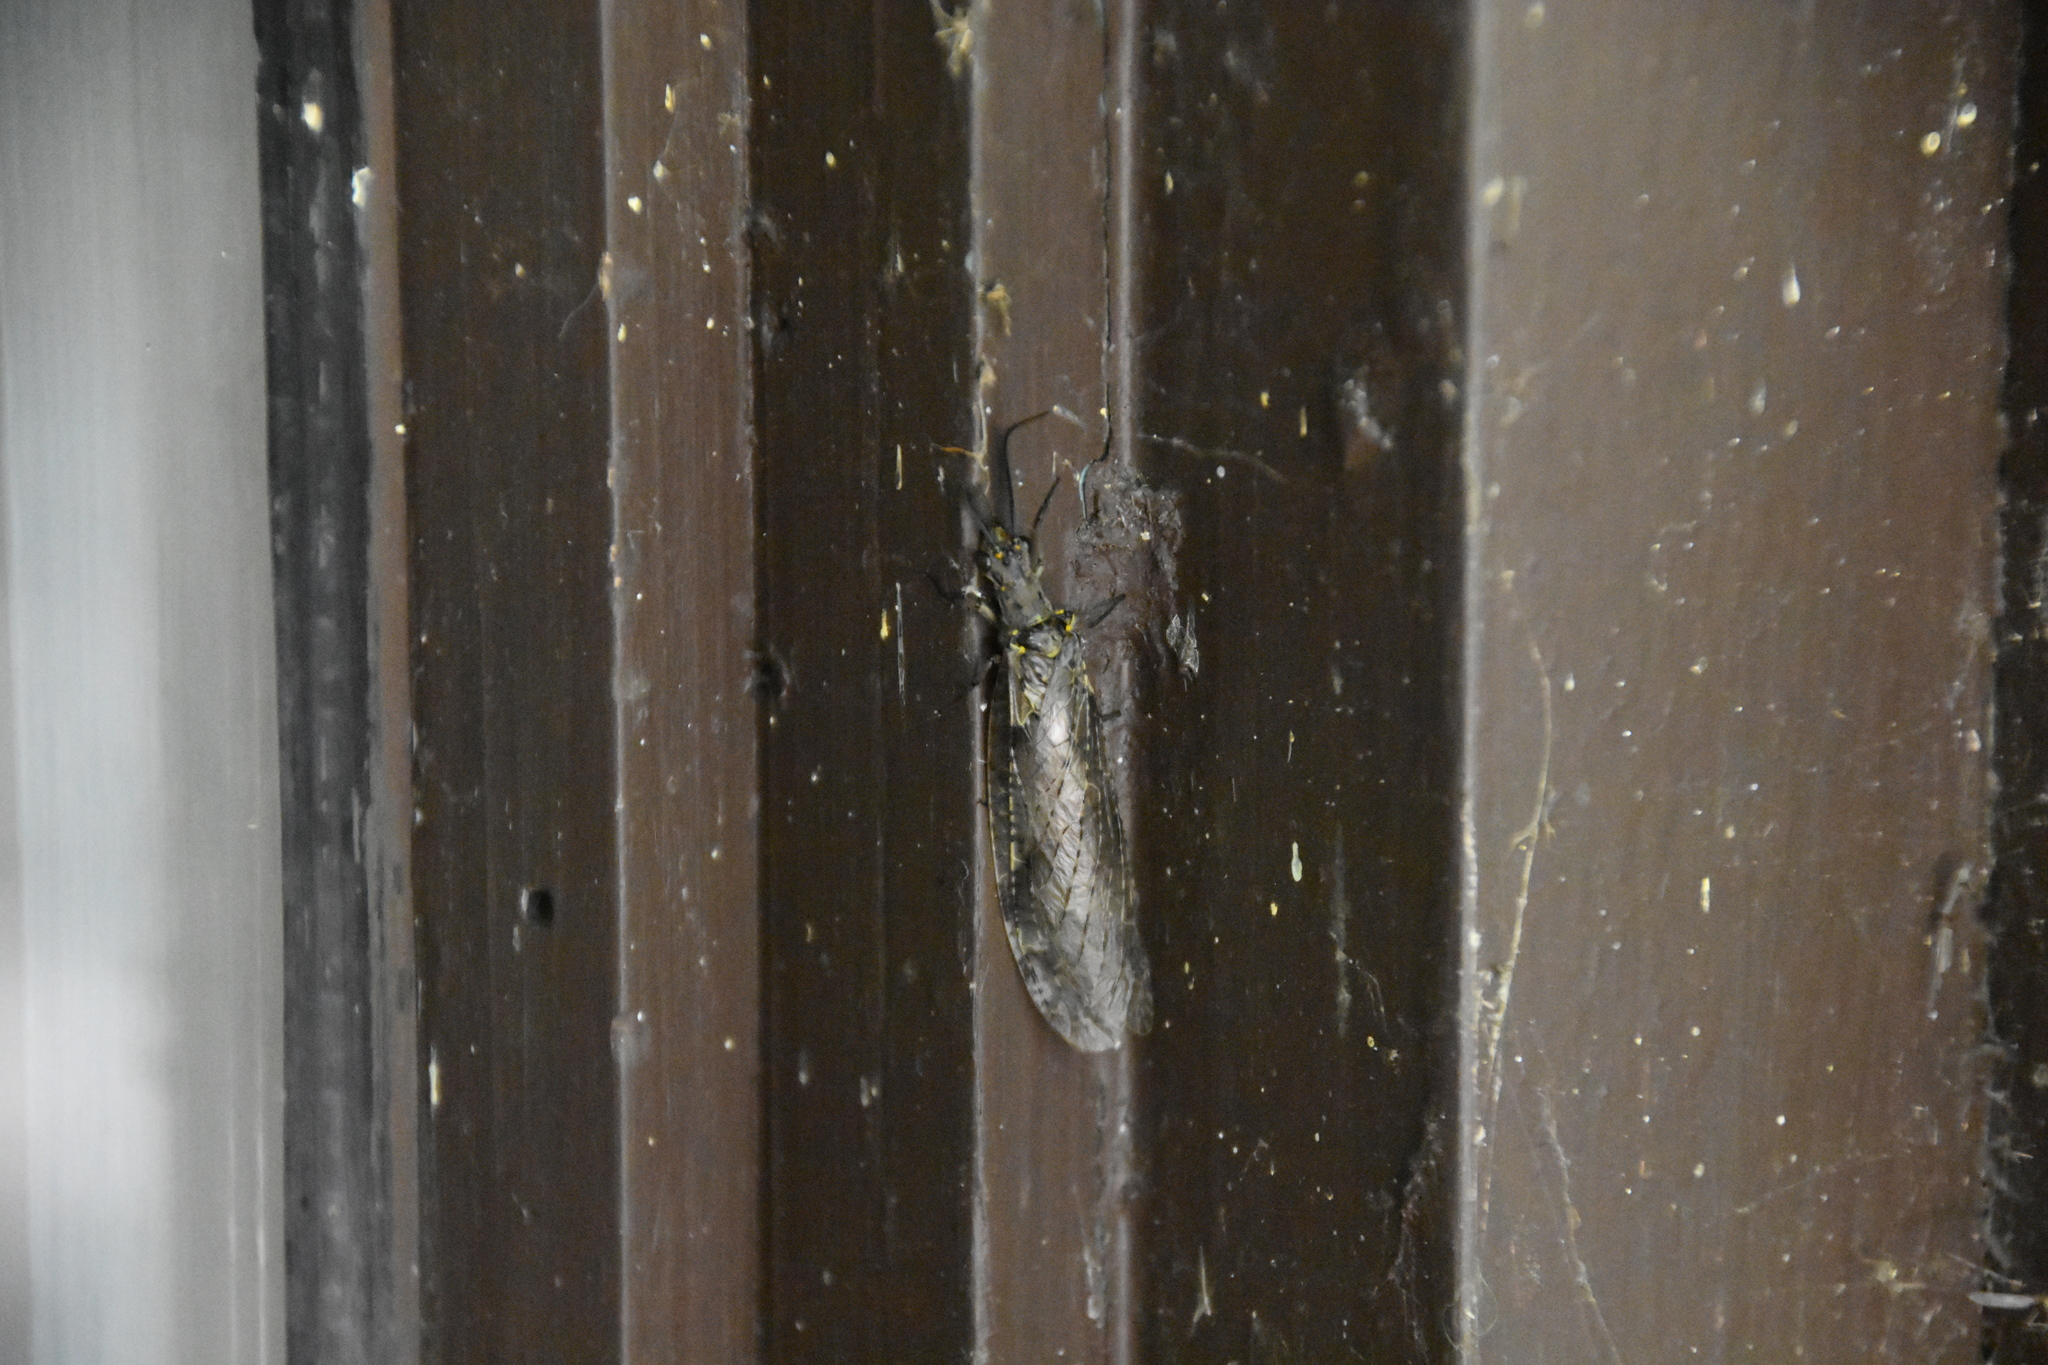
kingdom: Animalia
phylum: Arthropoda
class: Insecta
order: Megaloptera
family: Corydalidae
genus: Chauliodes
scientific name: Chauliodes rastricornis
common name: Spring fishfly
